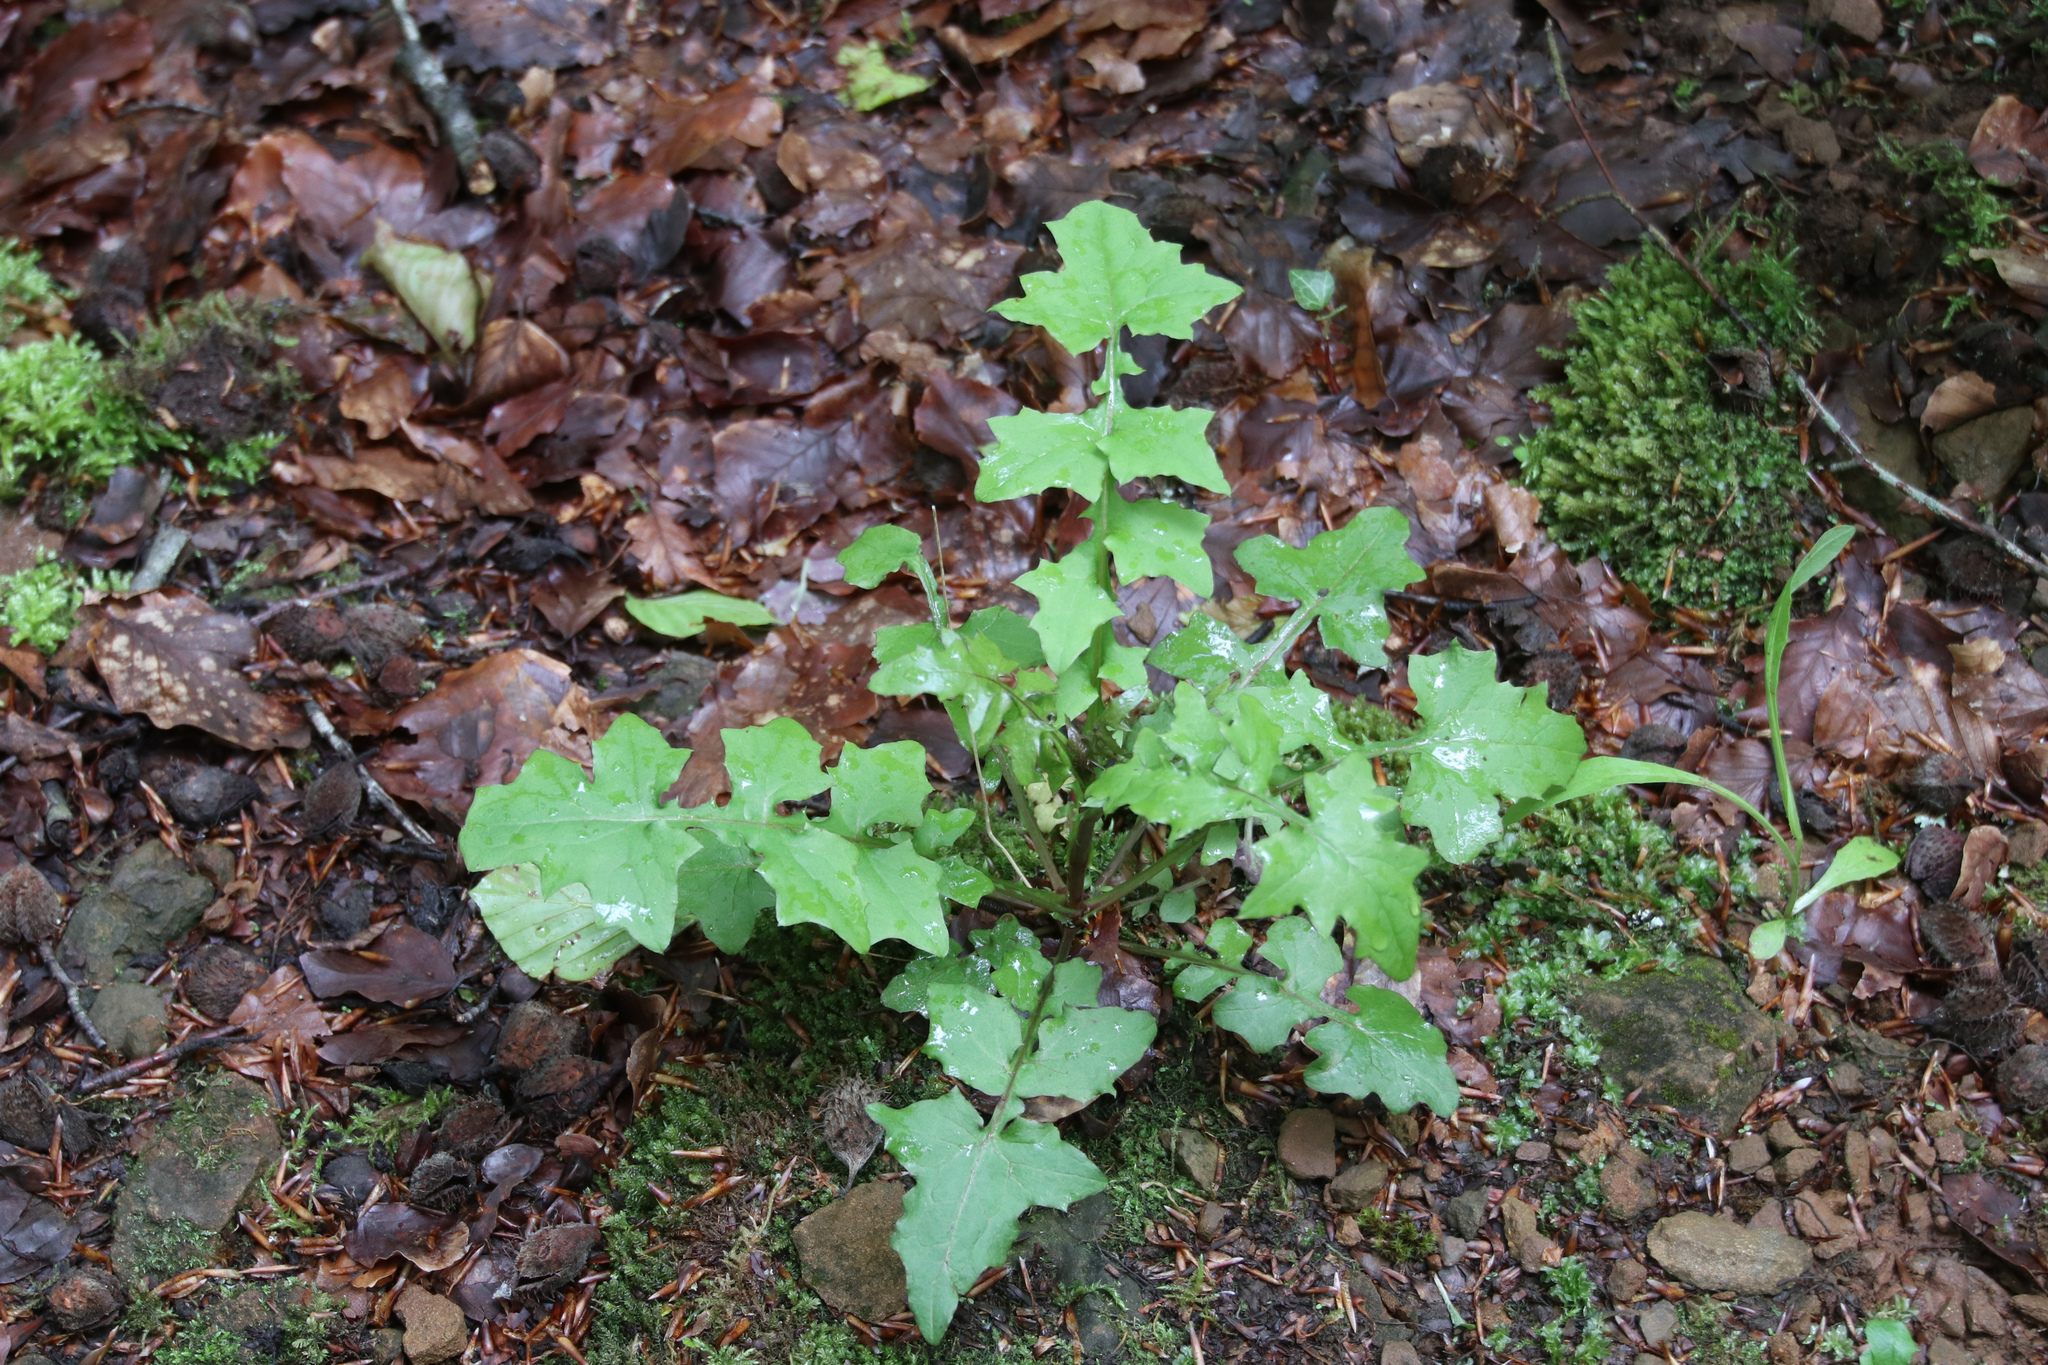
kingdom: Plantae
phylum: Tracheophyta
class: Magnoliopsida
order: Asterales
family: Asteraceae
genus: Mycelis
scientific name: Mycelis muralis
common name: Wall lettuce
